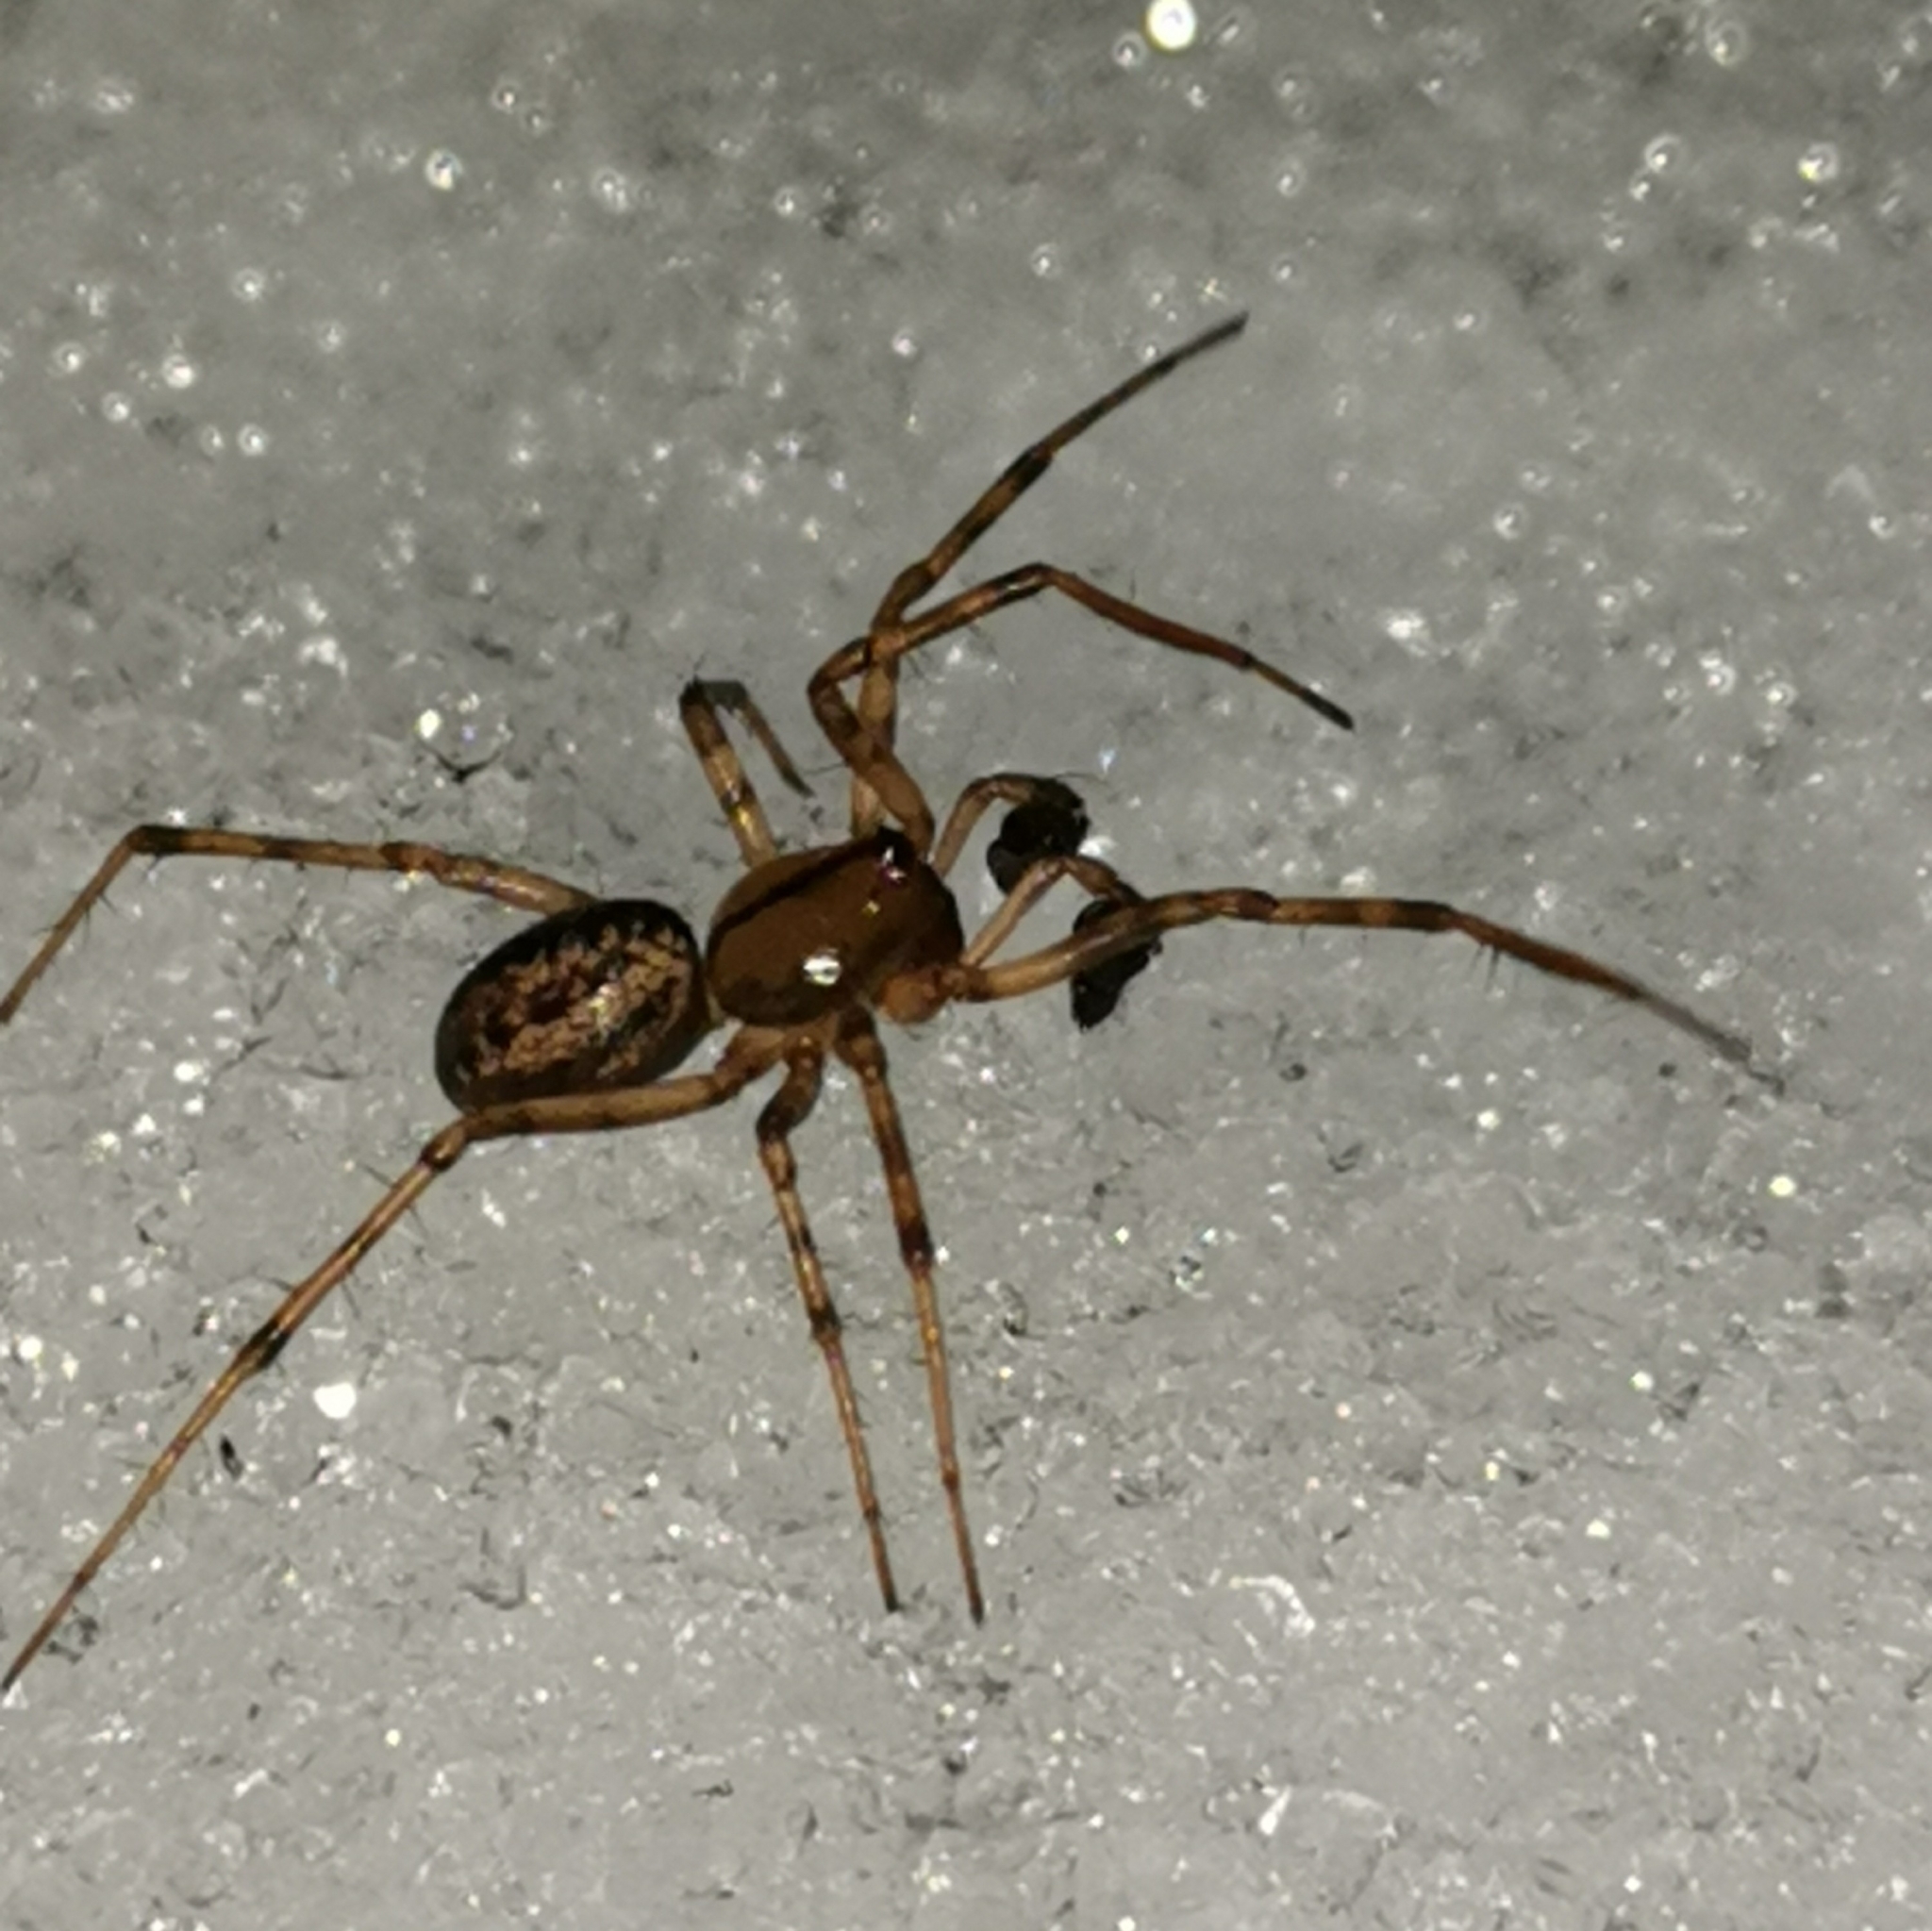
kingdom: Animalia
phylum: Arthropoda
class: Arachnida
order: Araneae
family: Linyphiidae
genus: Stemonyphantes
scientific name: Stemonyphantes lineatus
